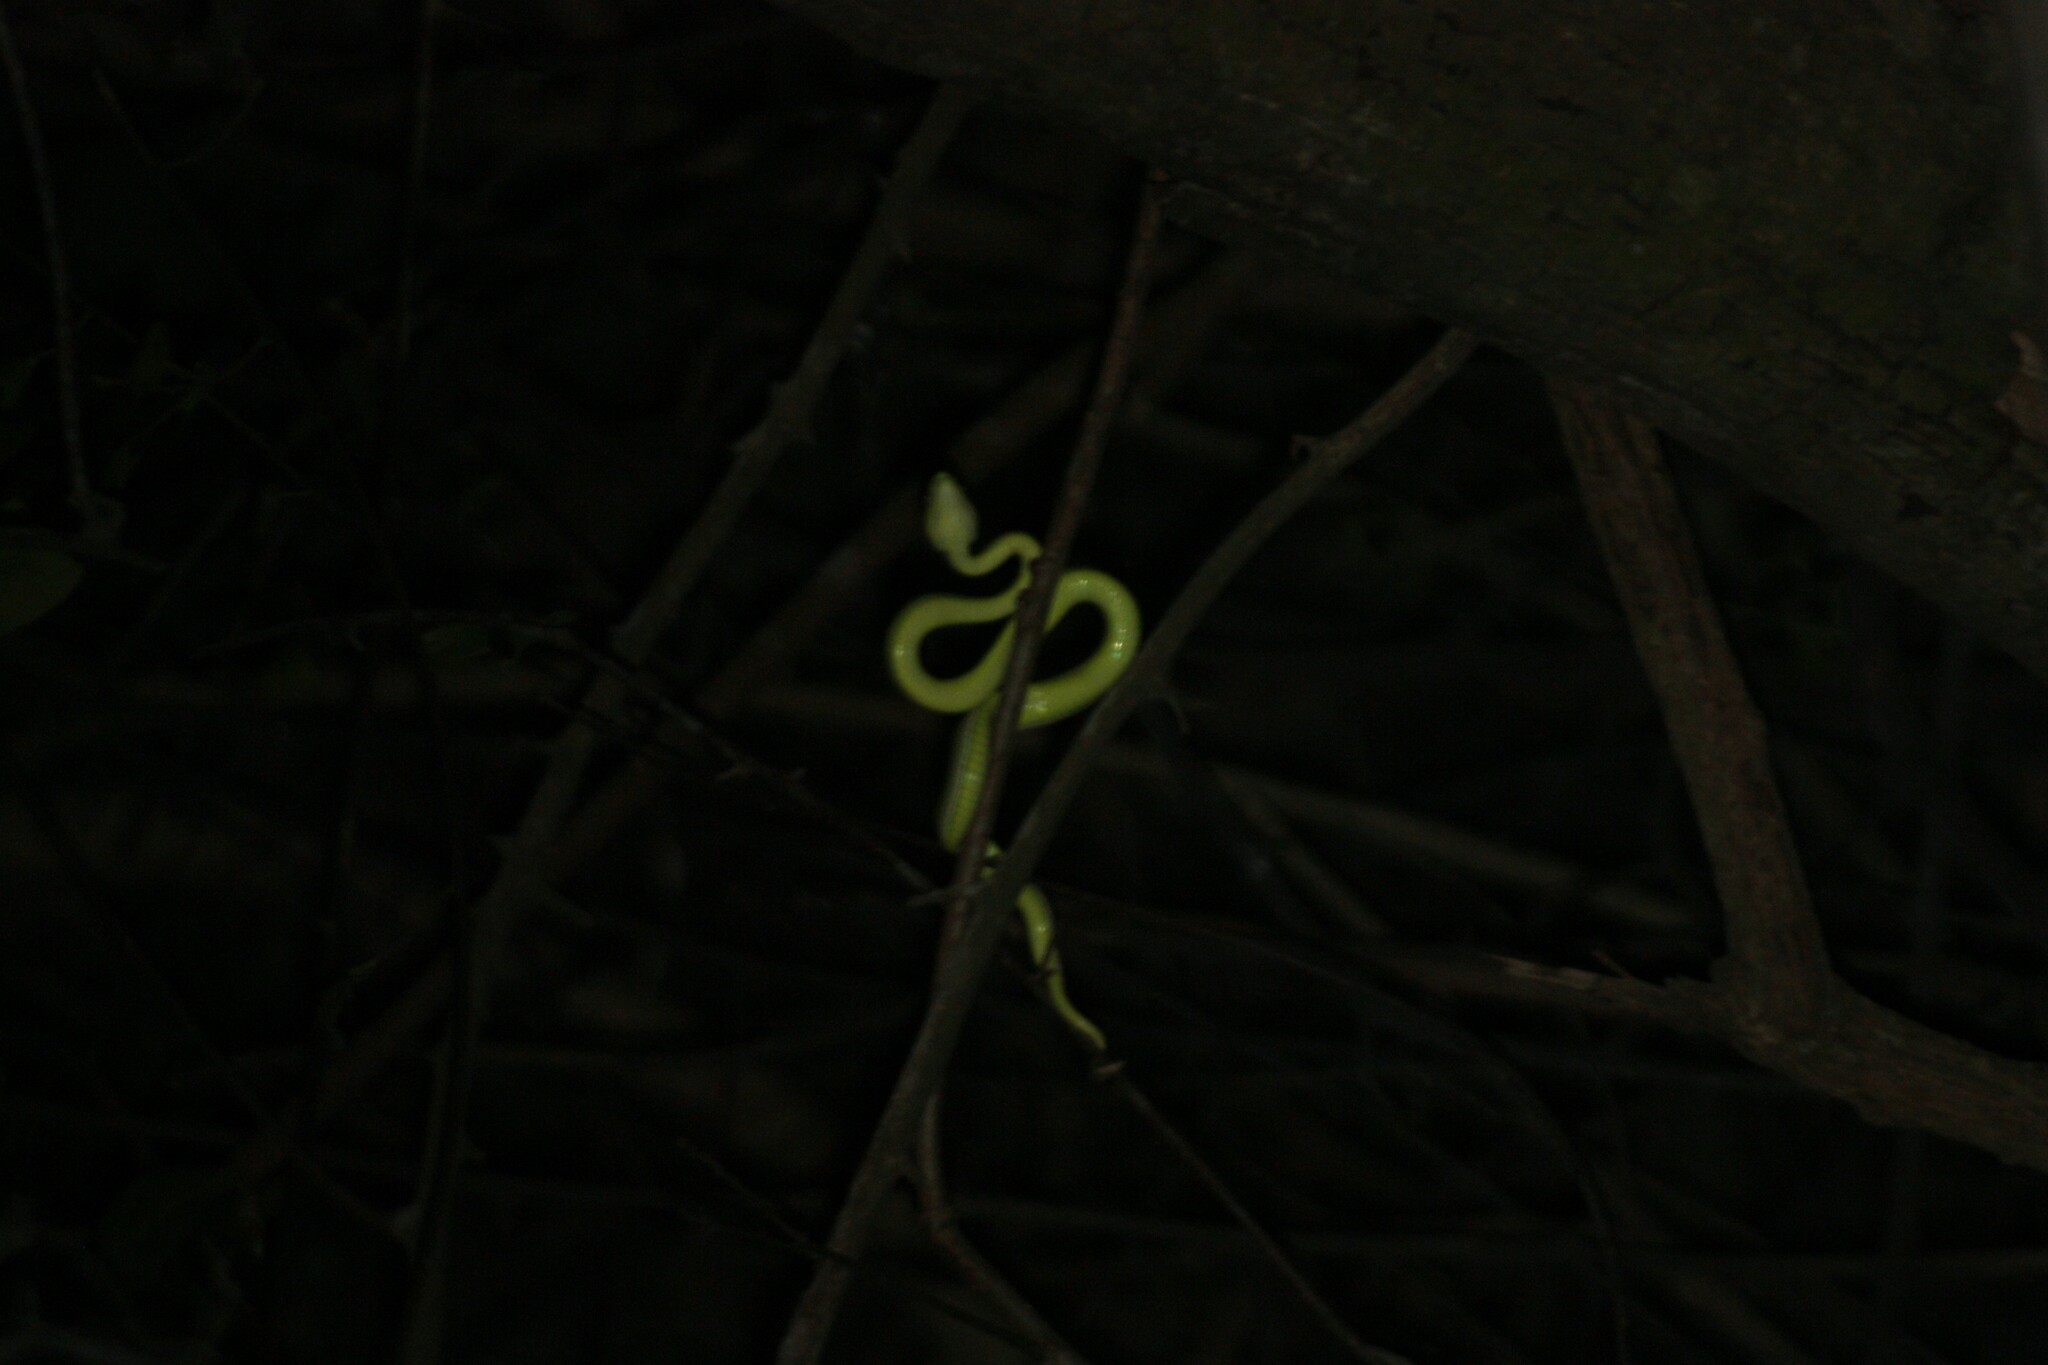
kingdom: Animalia
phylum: Chordata
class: Squamata
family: Viperidae
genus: Trimeresurus
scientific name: Trimeresurus stejnegeri
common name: Chen’s bamboo pit viper
